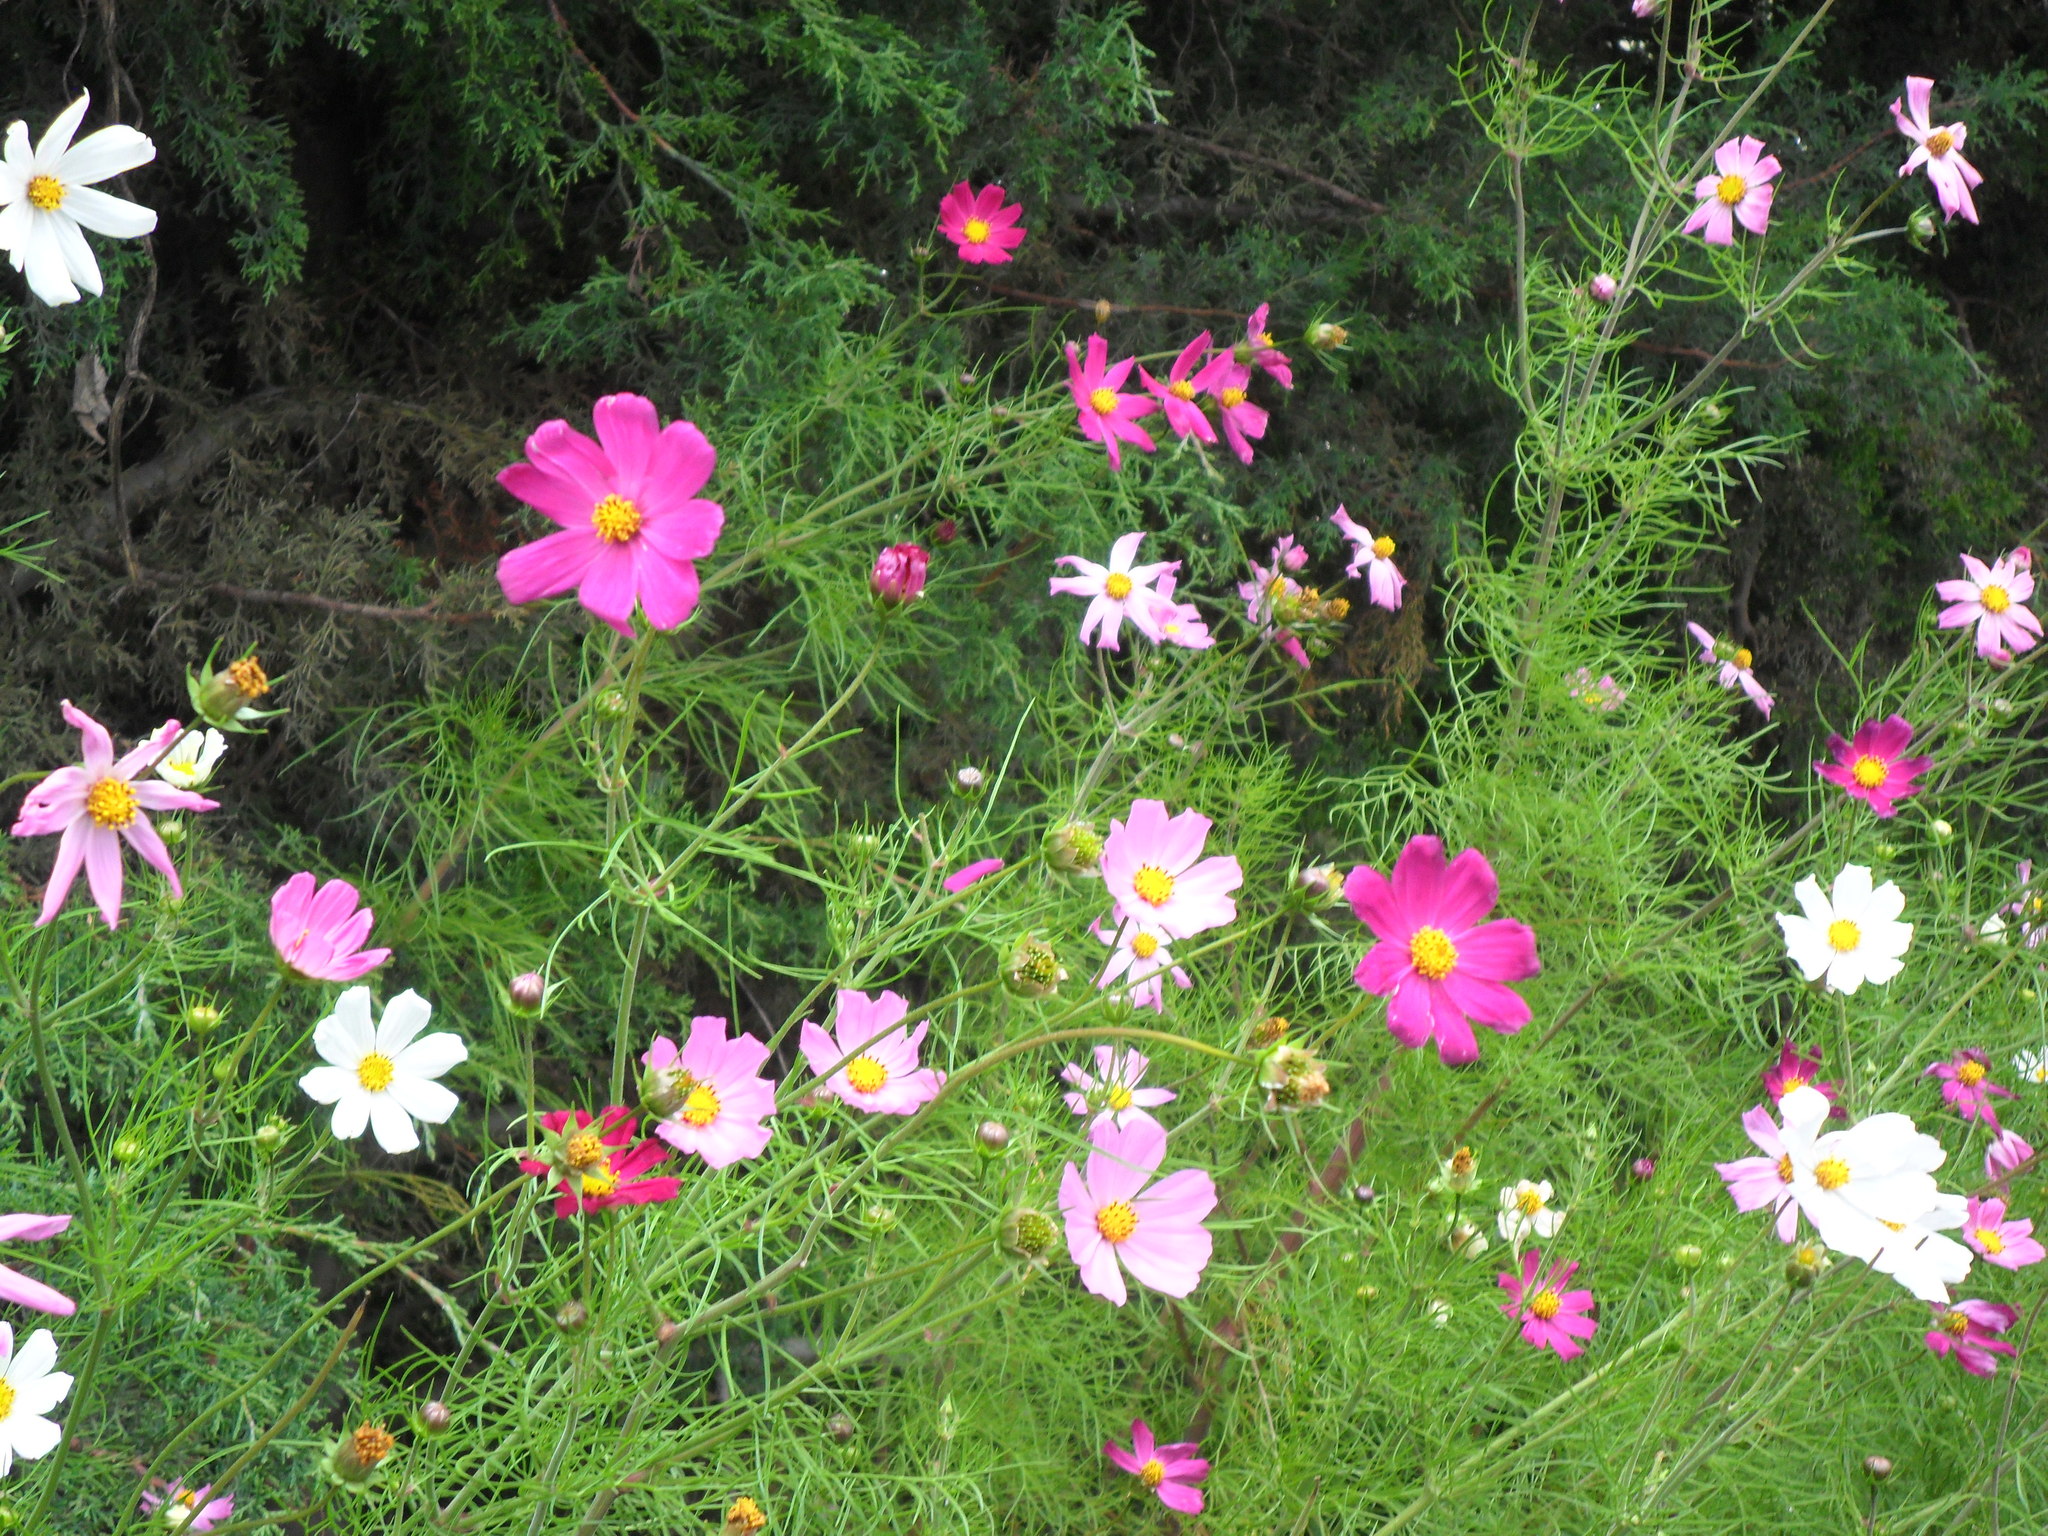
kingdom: Plantae
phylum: Tracheophyta
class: Magnoliopsida
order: Asterales
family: Asteraceae
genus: Cosmos
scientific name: Cosmos bipinnatus
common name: Garden cosmos
